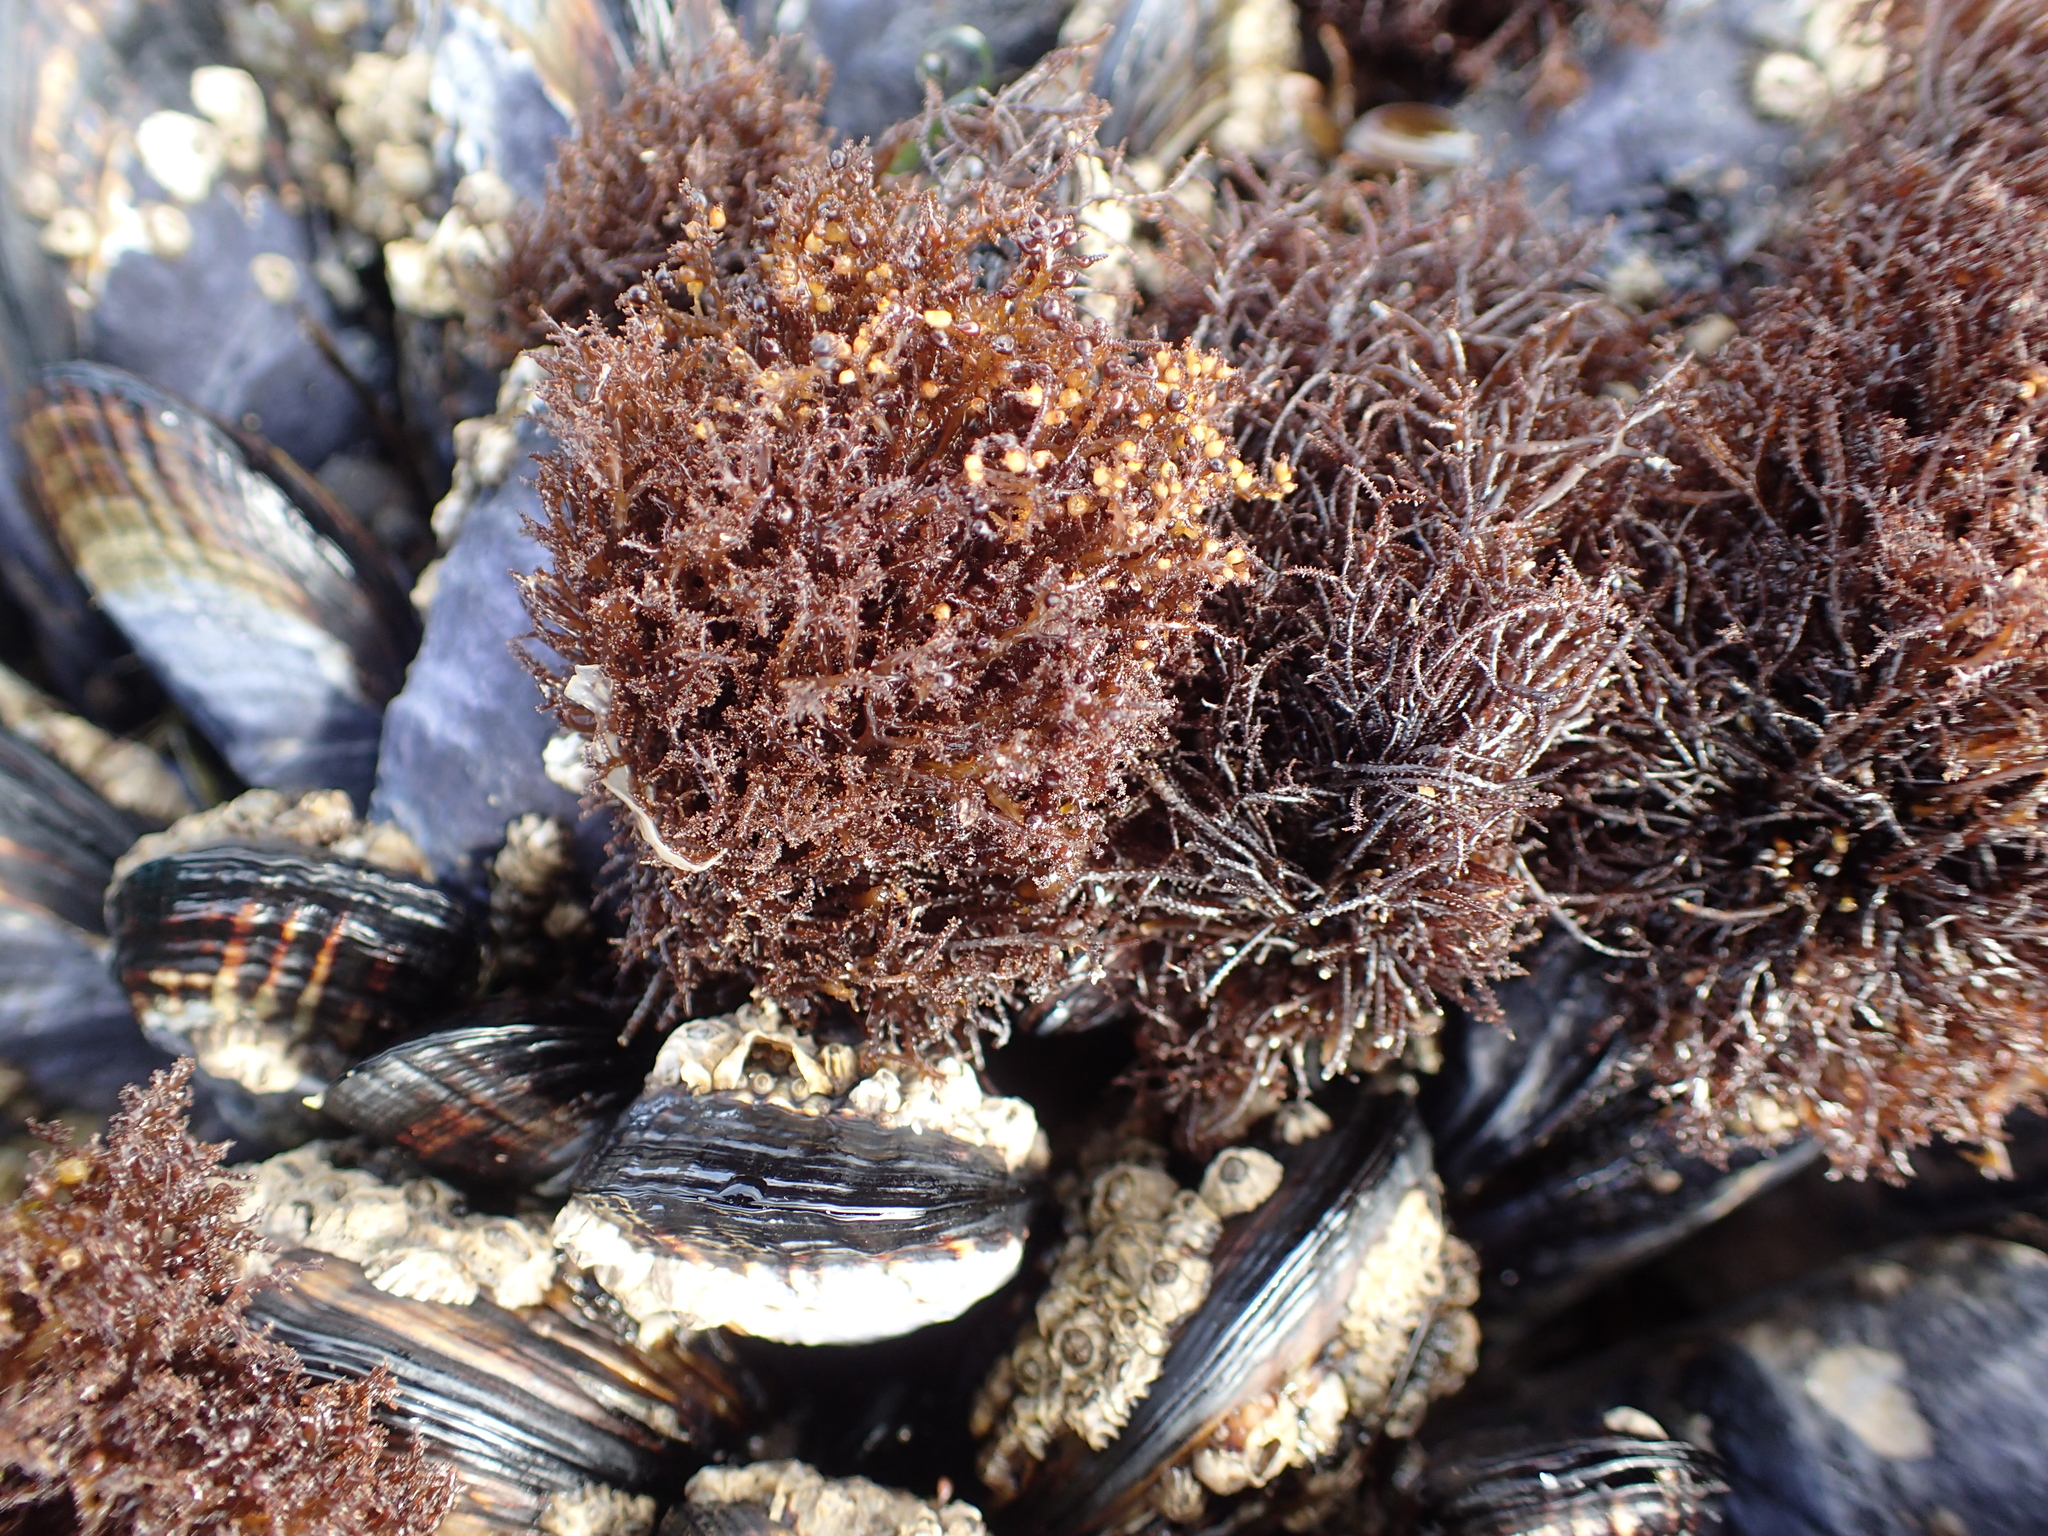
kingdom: Plantae
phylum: Rhodophyta
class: Florideophyceae
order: Gigartinales
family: Endocladiaceae
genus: Endocladia
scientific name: Endocladia muricata
